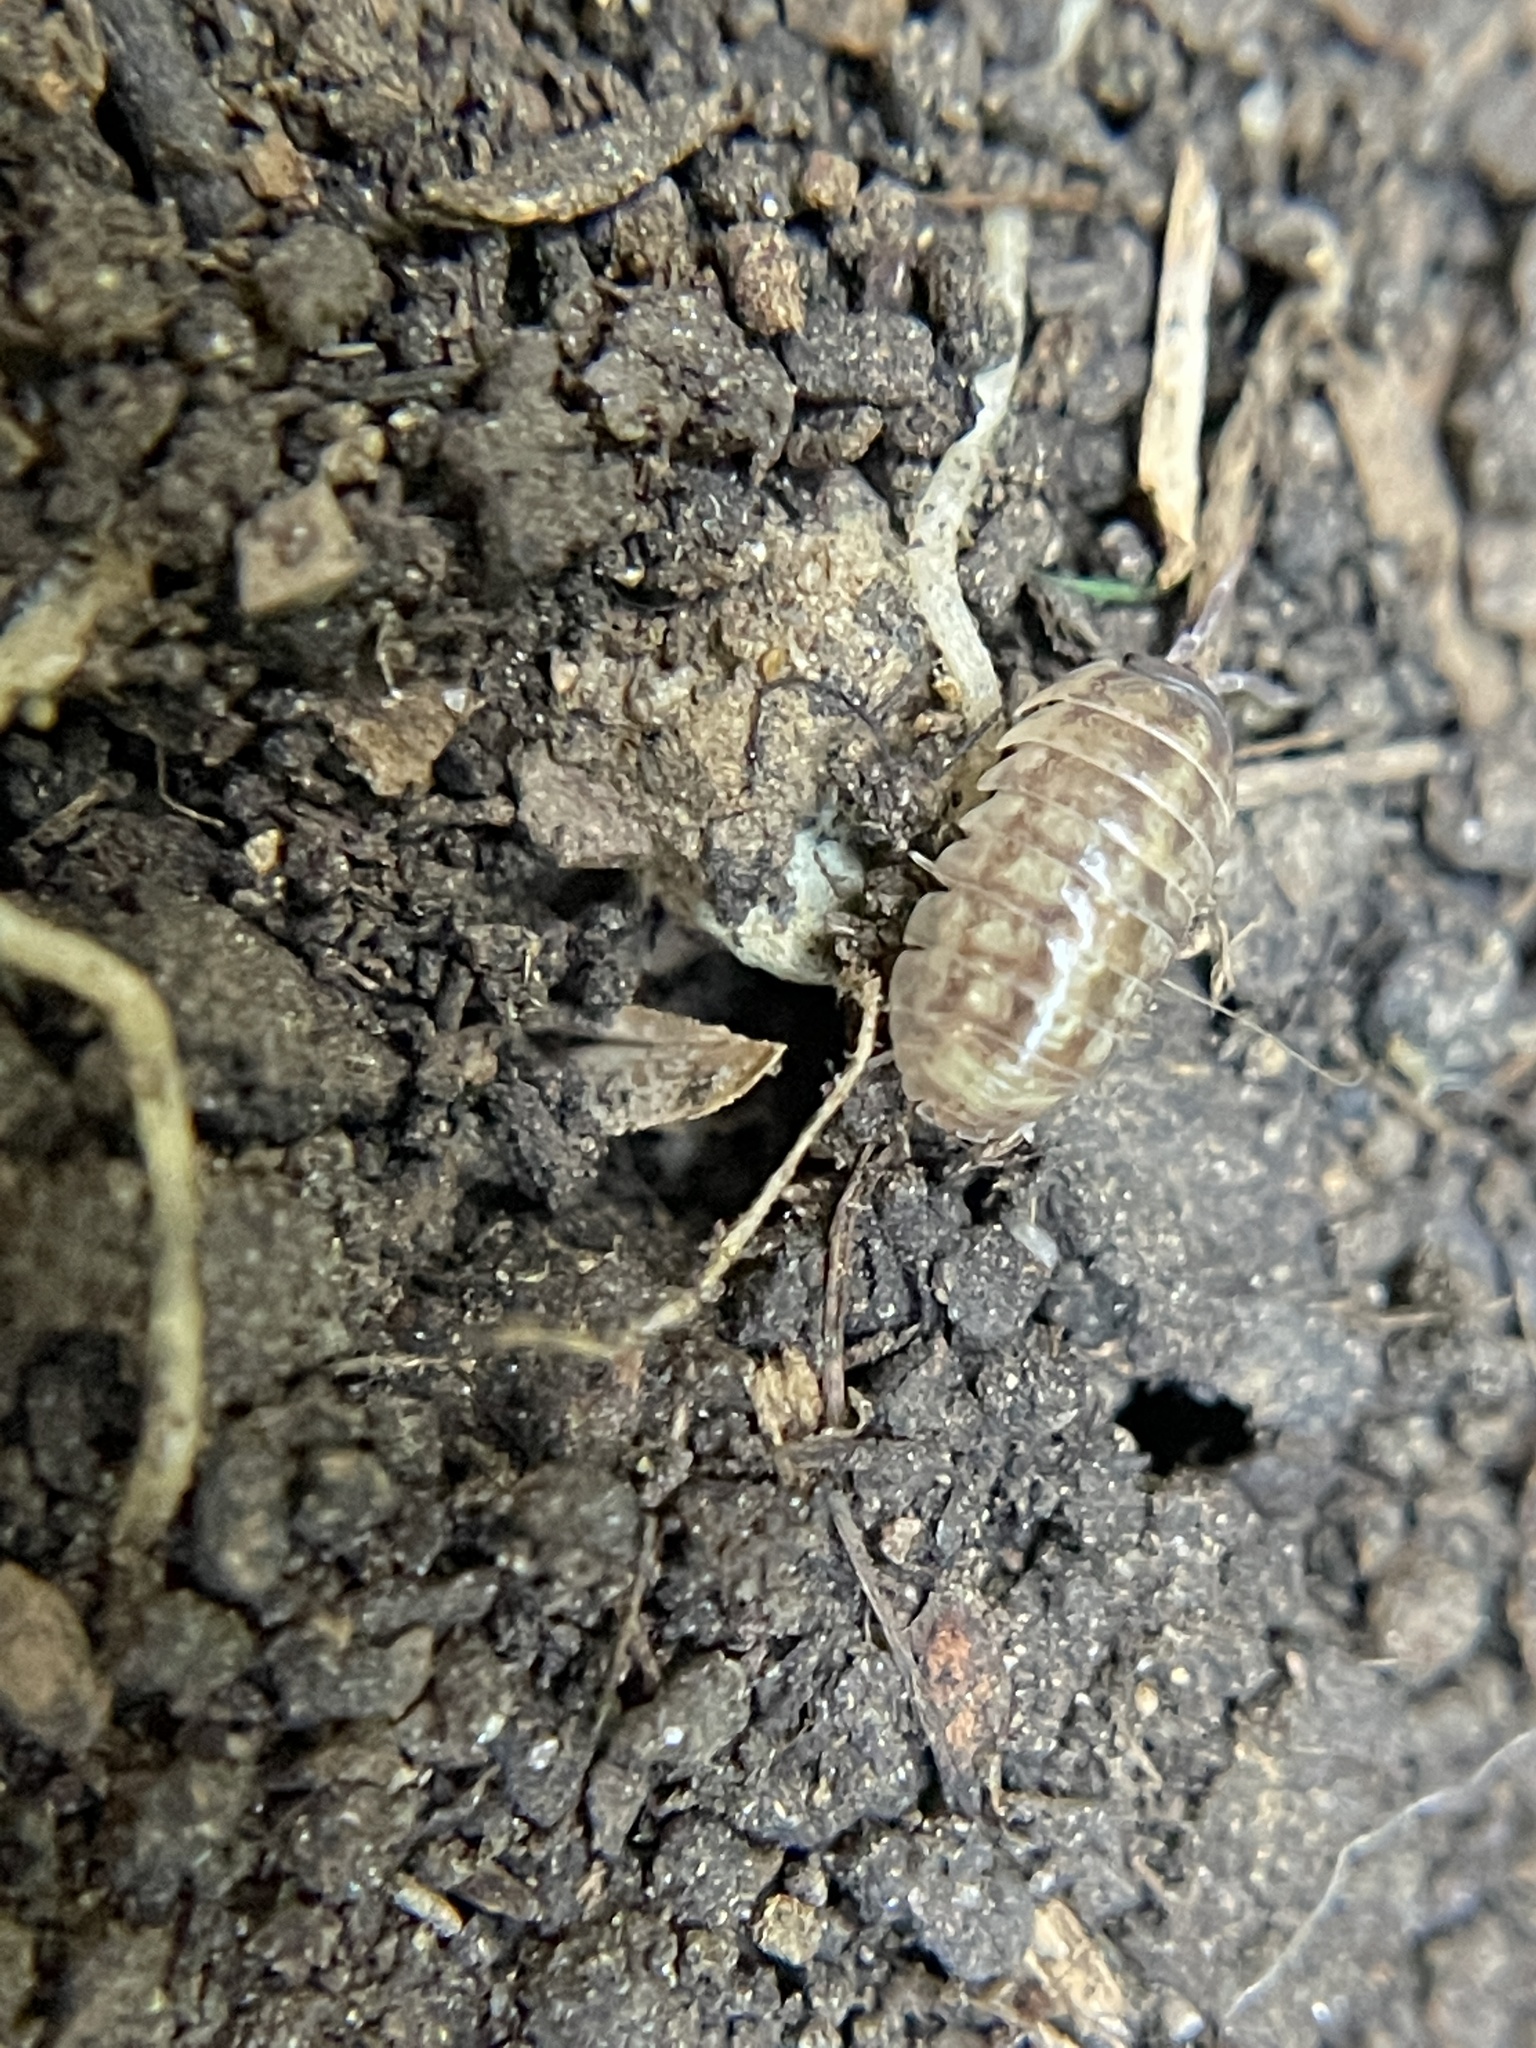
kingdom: Animalia
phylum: Arthropoda
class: Malacostraca
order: Isopoda
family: Armadillidiidae
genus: Armadillidium
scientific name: Armadillidium vulgare
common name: Common pill woodlouse
